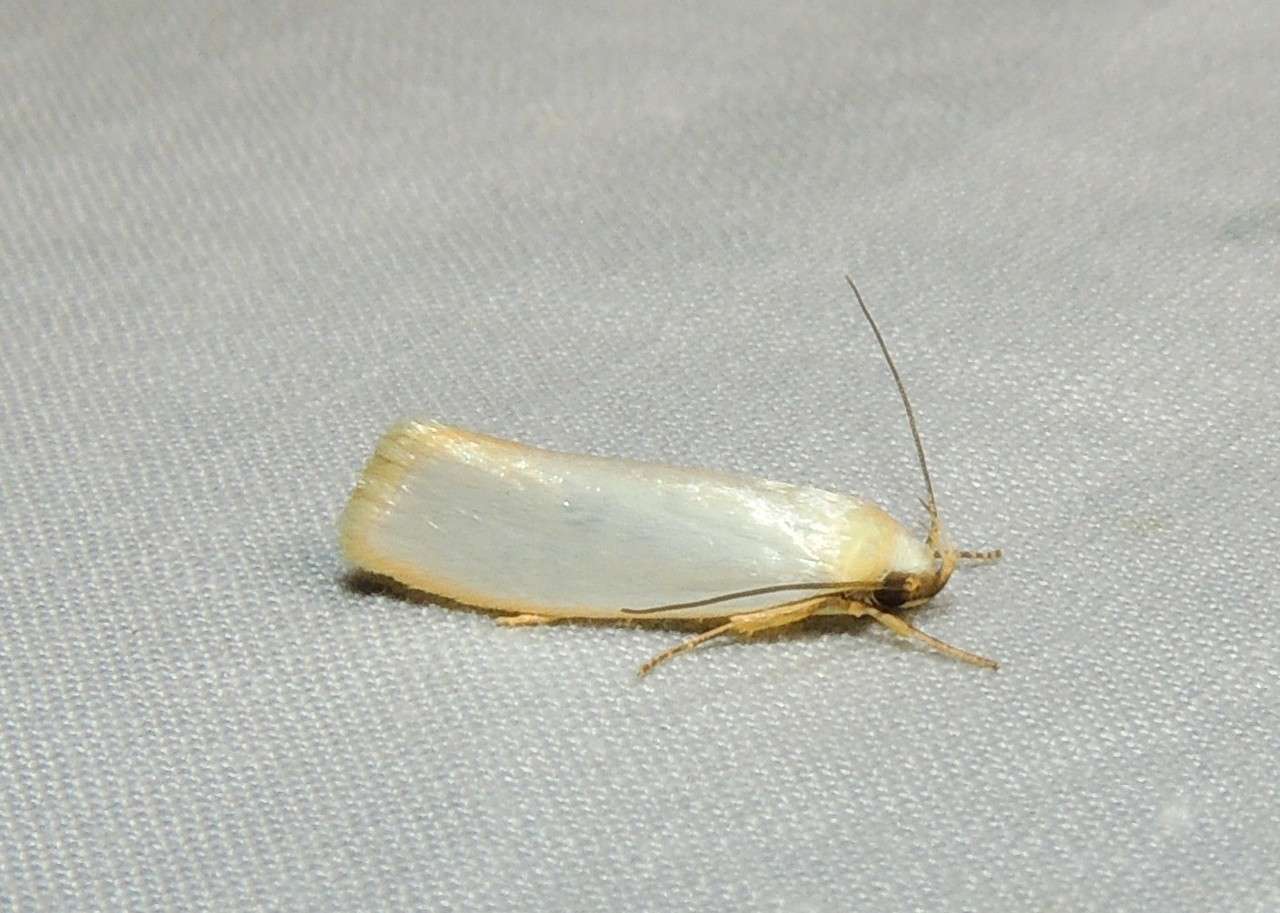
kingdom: Animalia
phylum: Arthropoda
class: Insecta
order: Lepidoptera
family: Oecophoridae
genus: Eochrois
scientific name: Eochrois callianassa
